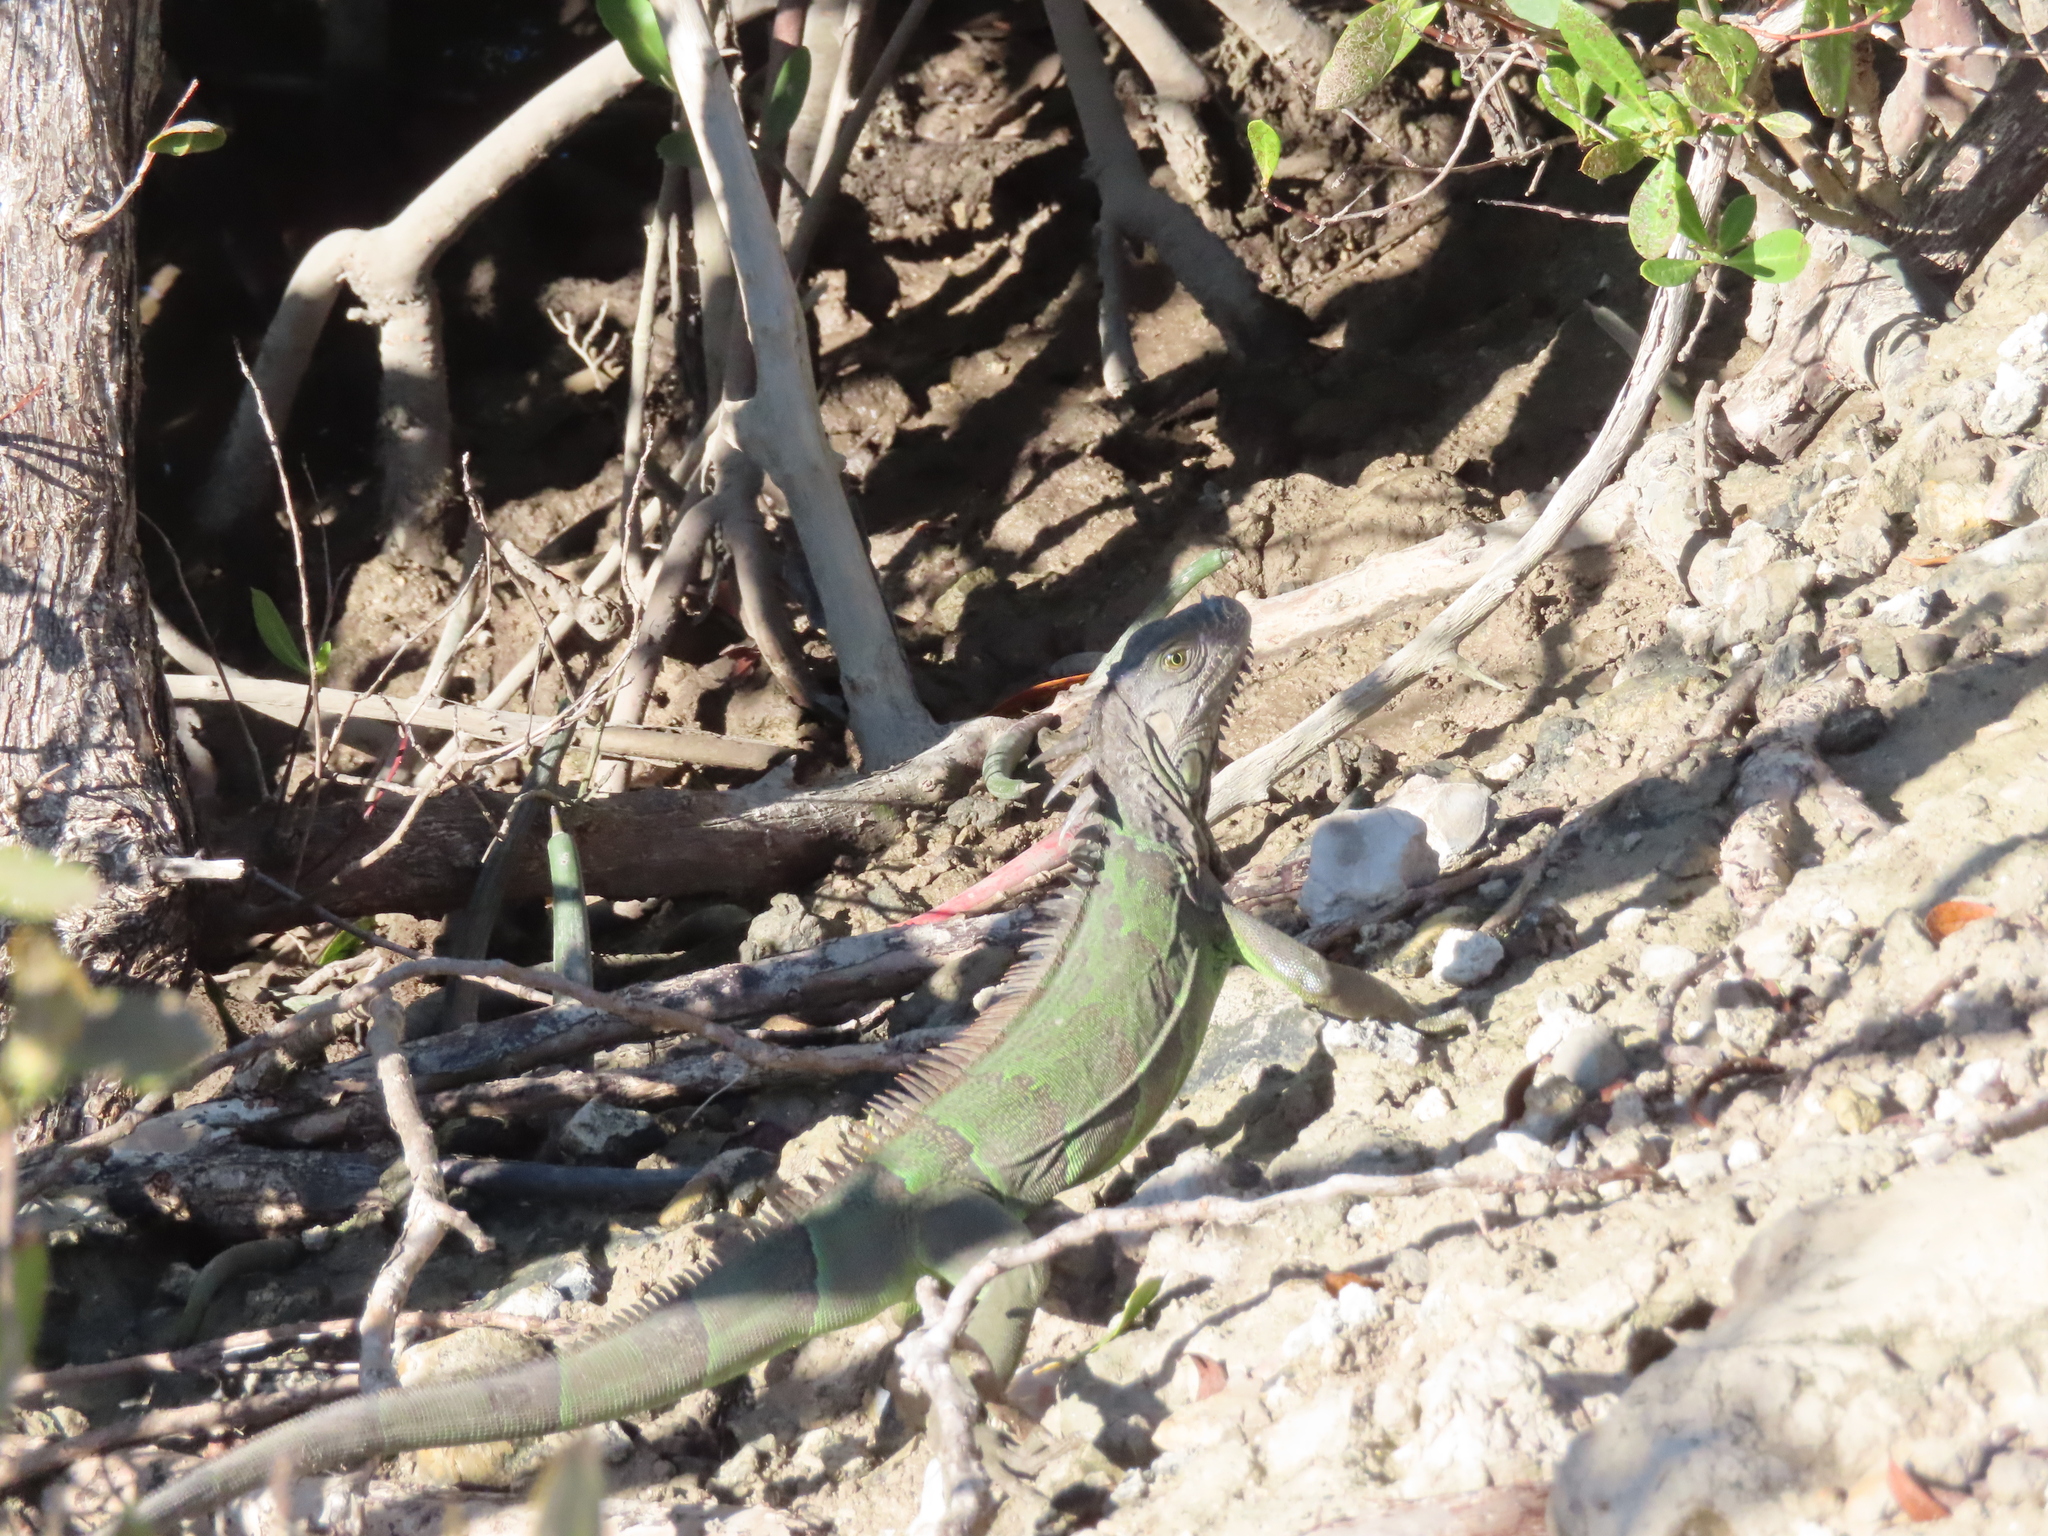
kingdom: Animalia
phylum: Chordata
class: Squamata
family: Iguanidae
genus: Iguana
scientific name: Iguana iguana
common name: Green iguana
